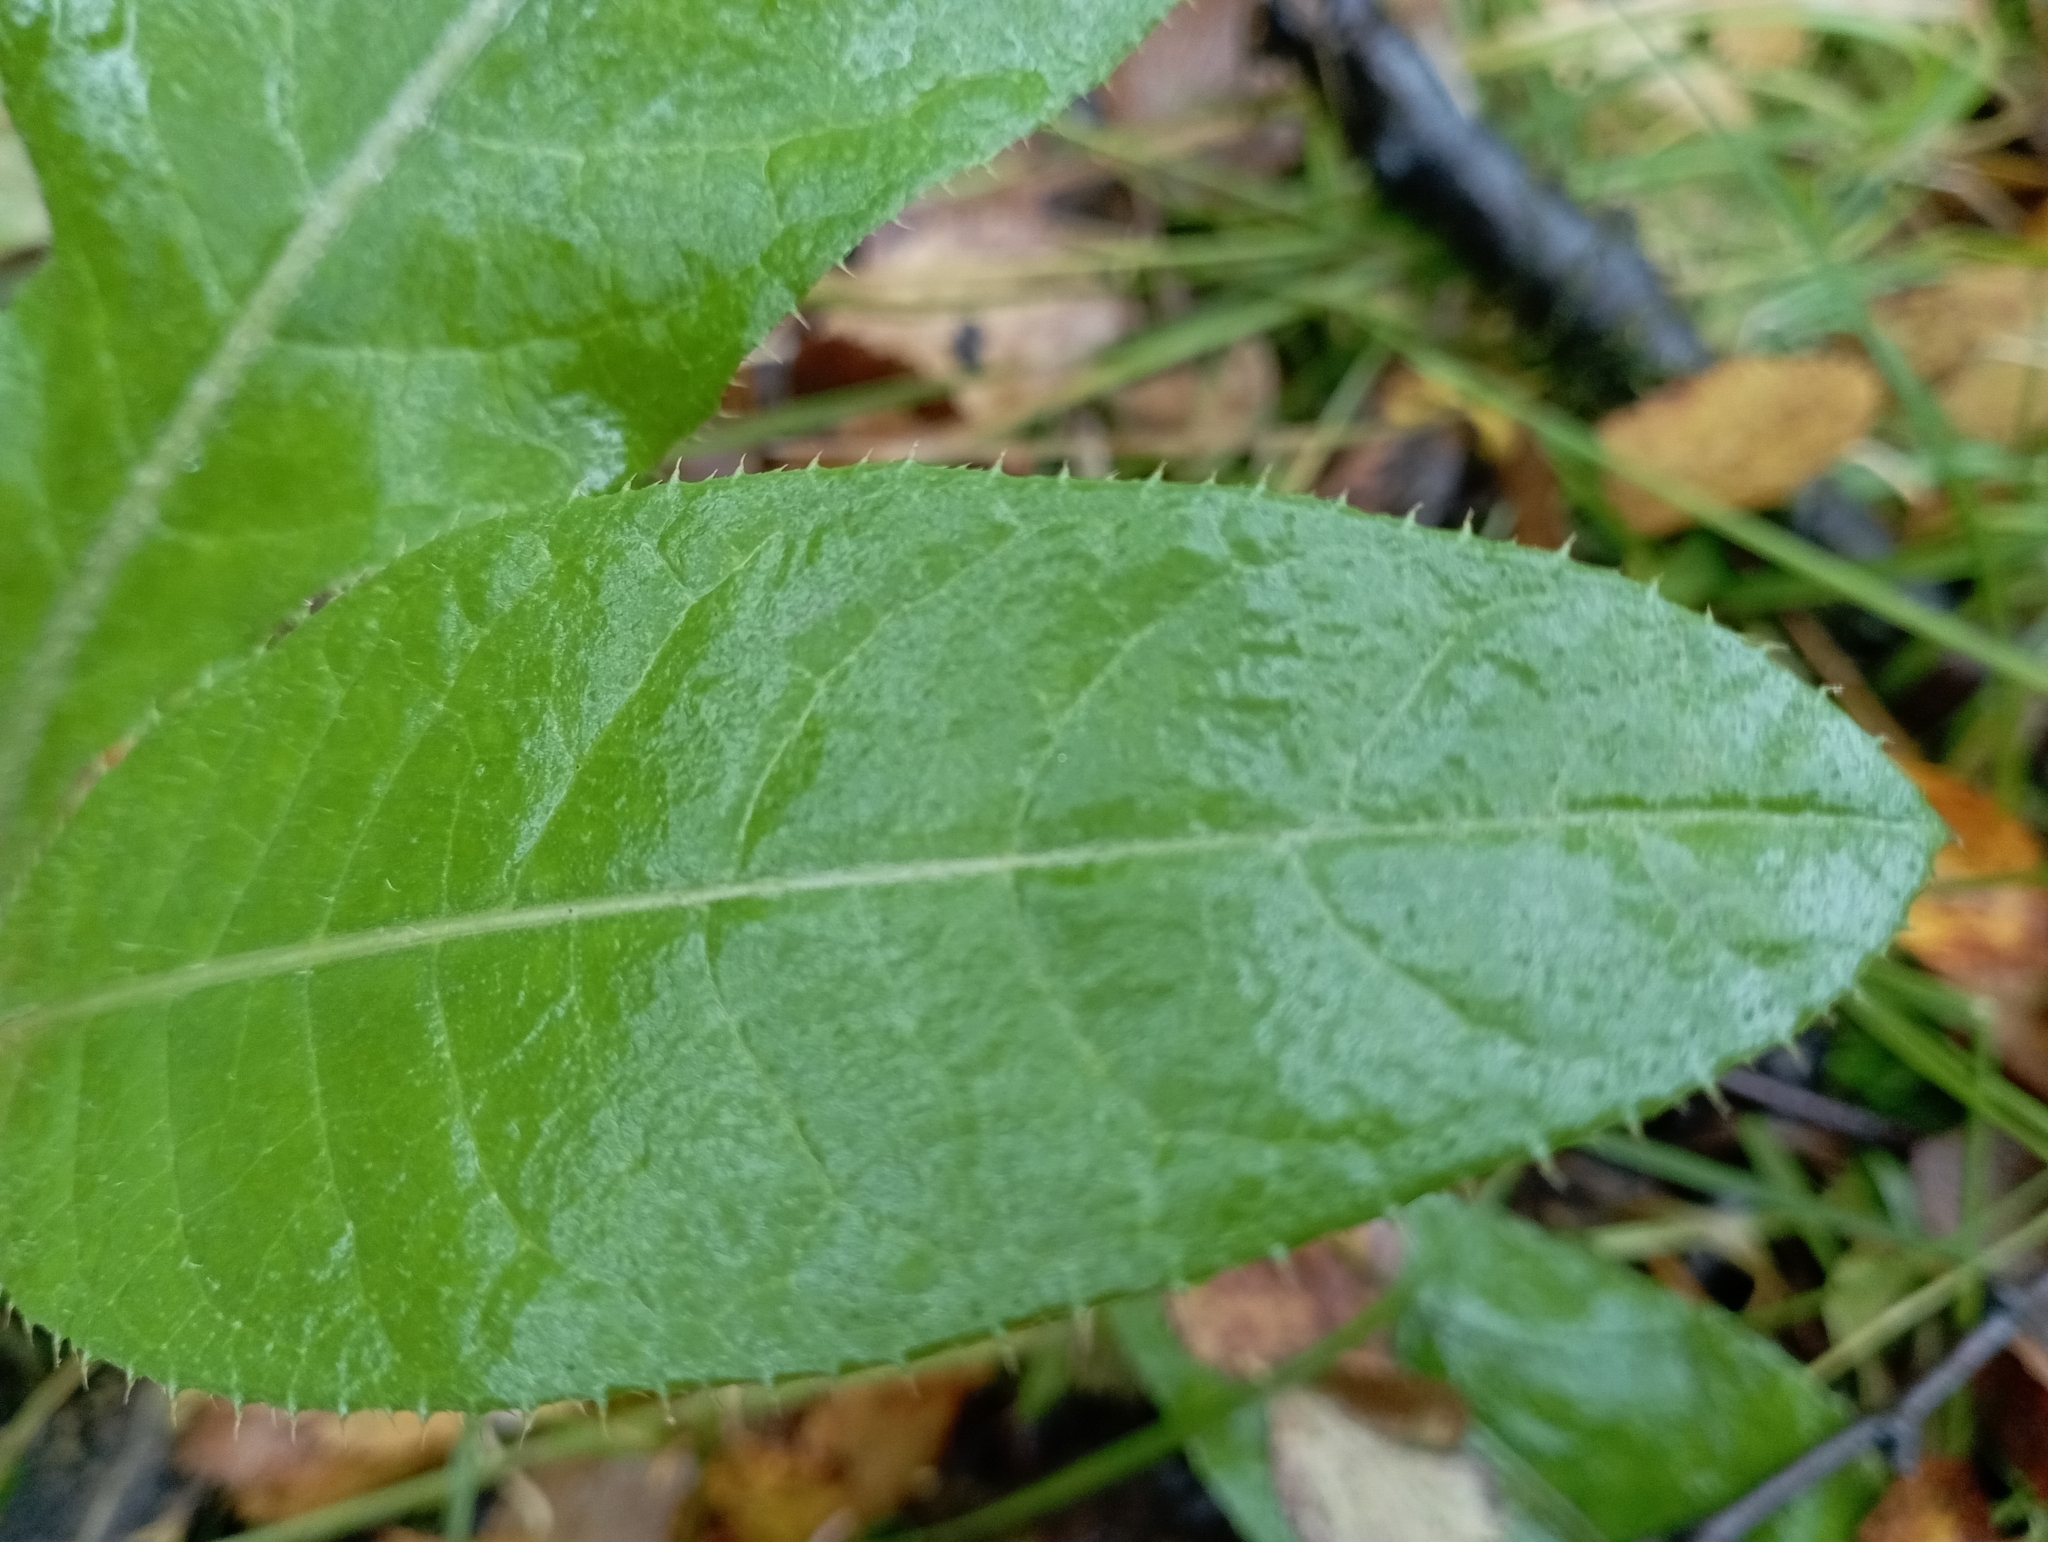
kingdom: Plantae
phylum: Tracheophyta
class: Magnoliopsida
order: Asterales
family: Asteraceae
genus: Cirsium
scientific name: Cirsium heterophyllum
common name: Melancholy thistle
